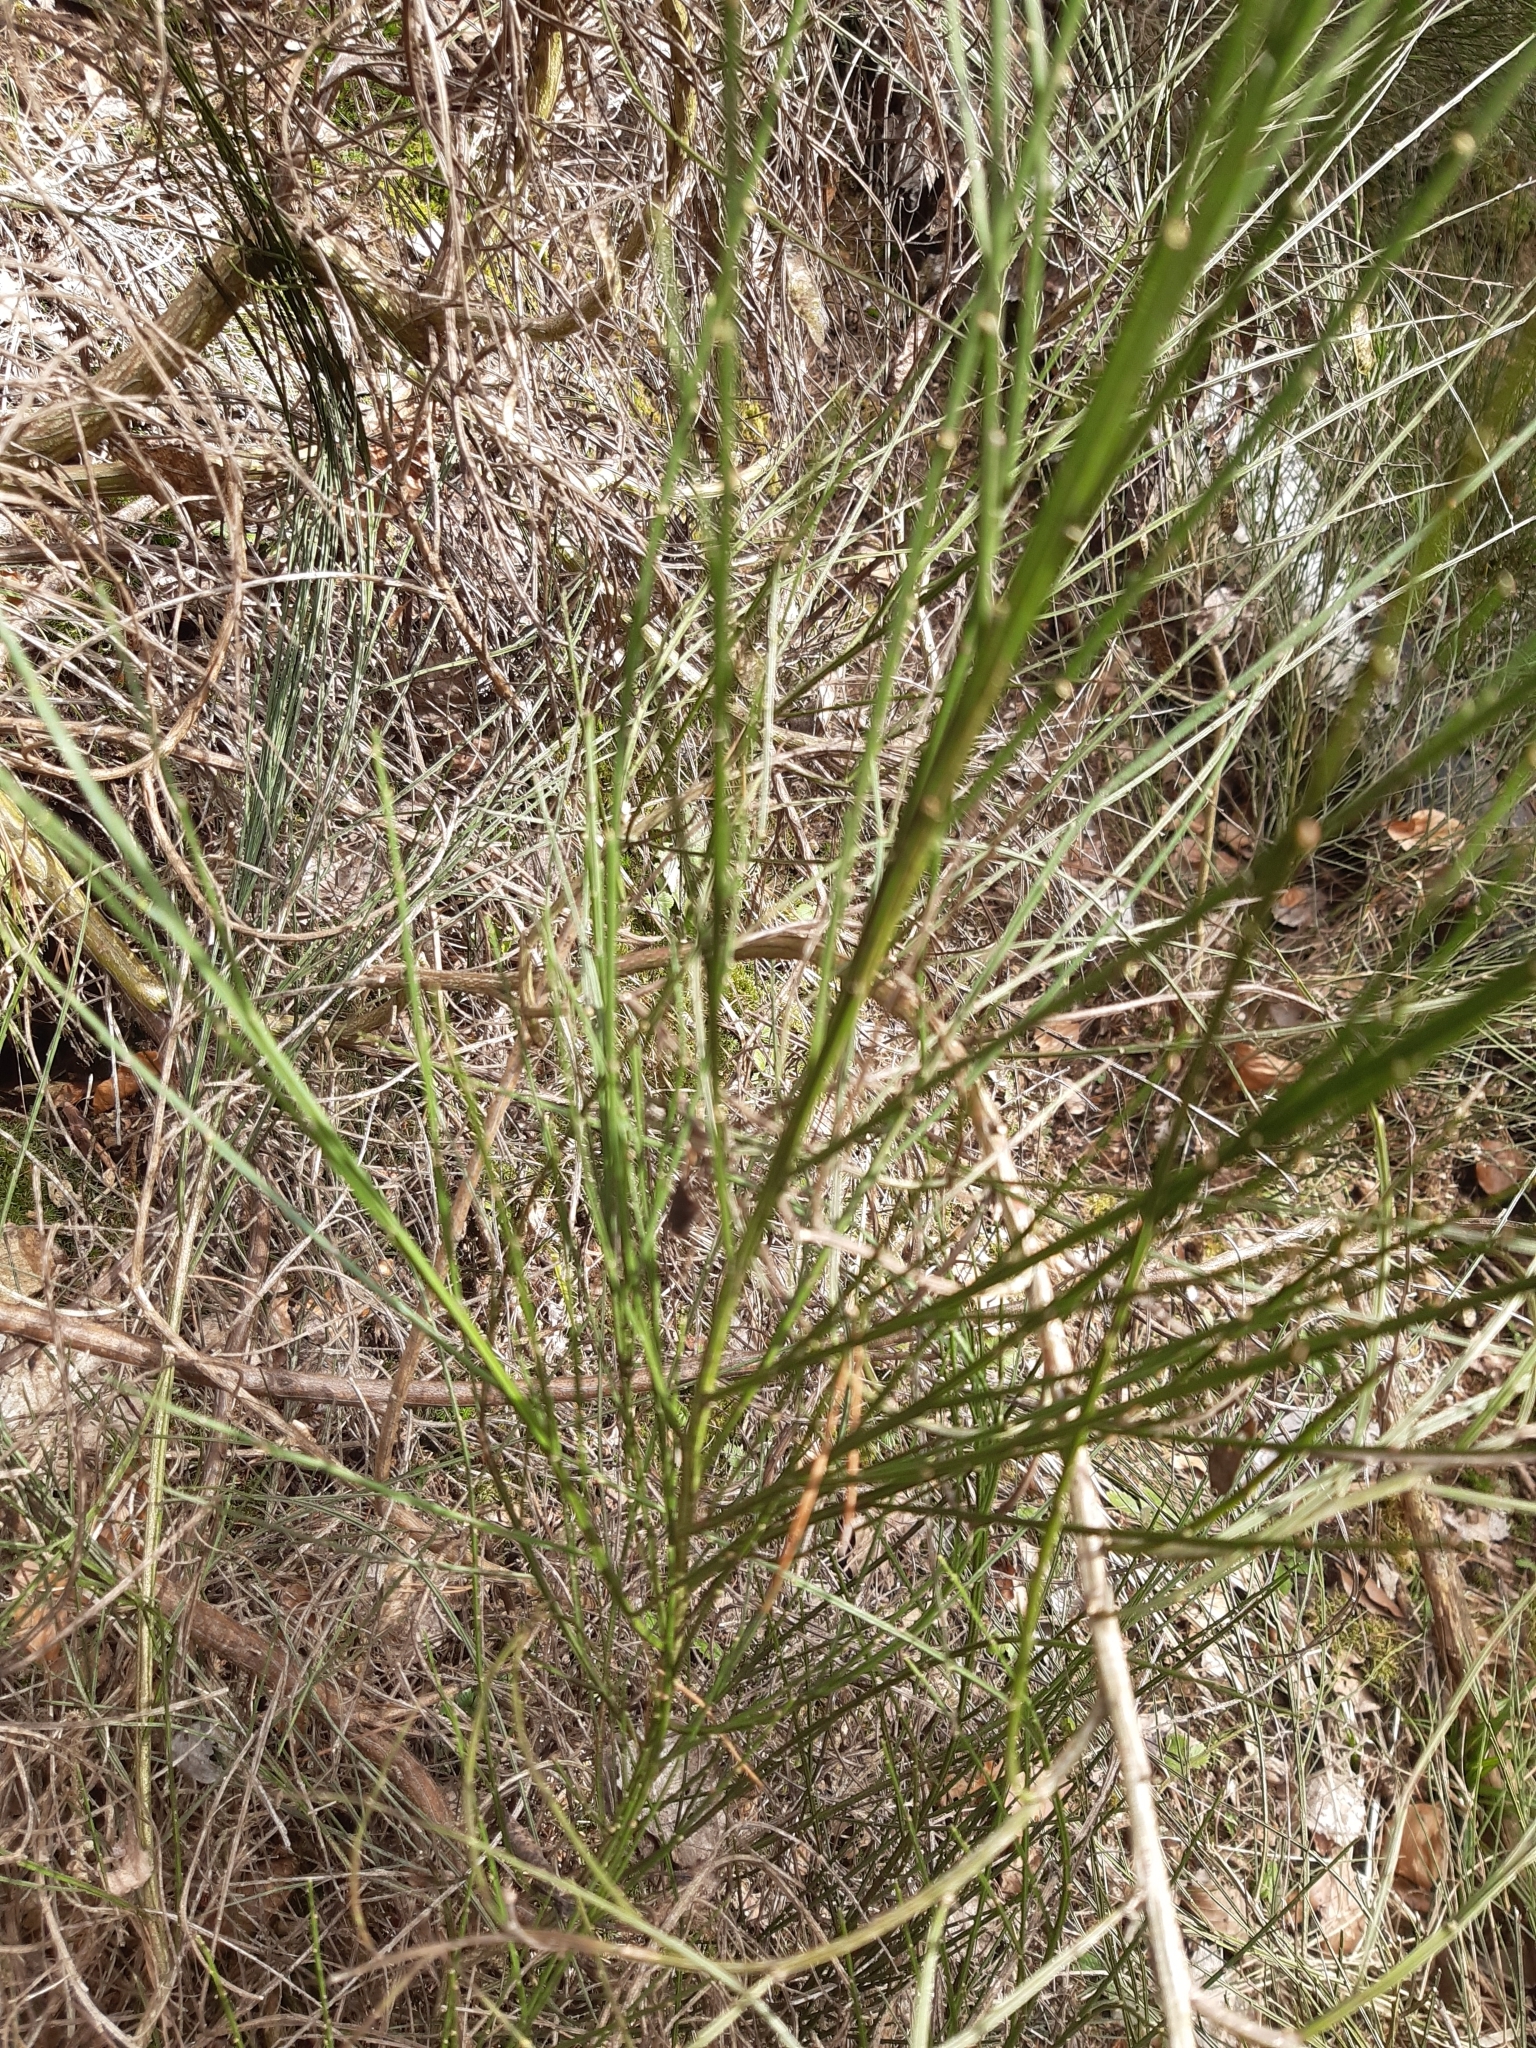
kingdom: Plantae
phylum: Tracheophyta
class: Magnoliopsida
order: Fabales
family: Fabaceae
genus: Cytisus
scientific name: Cytisus scoparius
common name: Scotch broom
